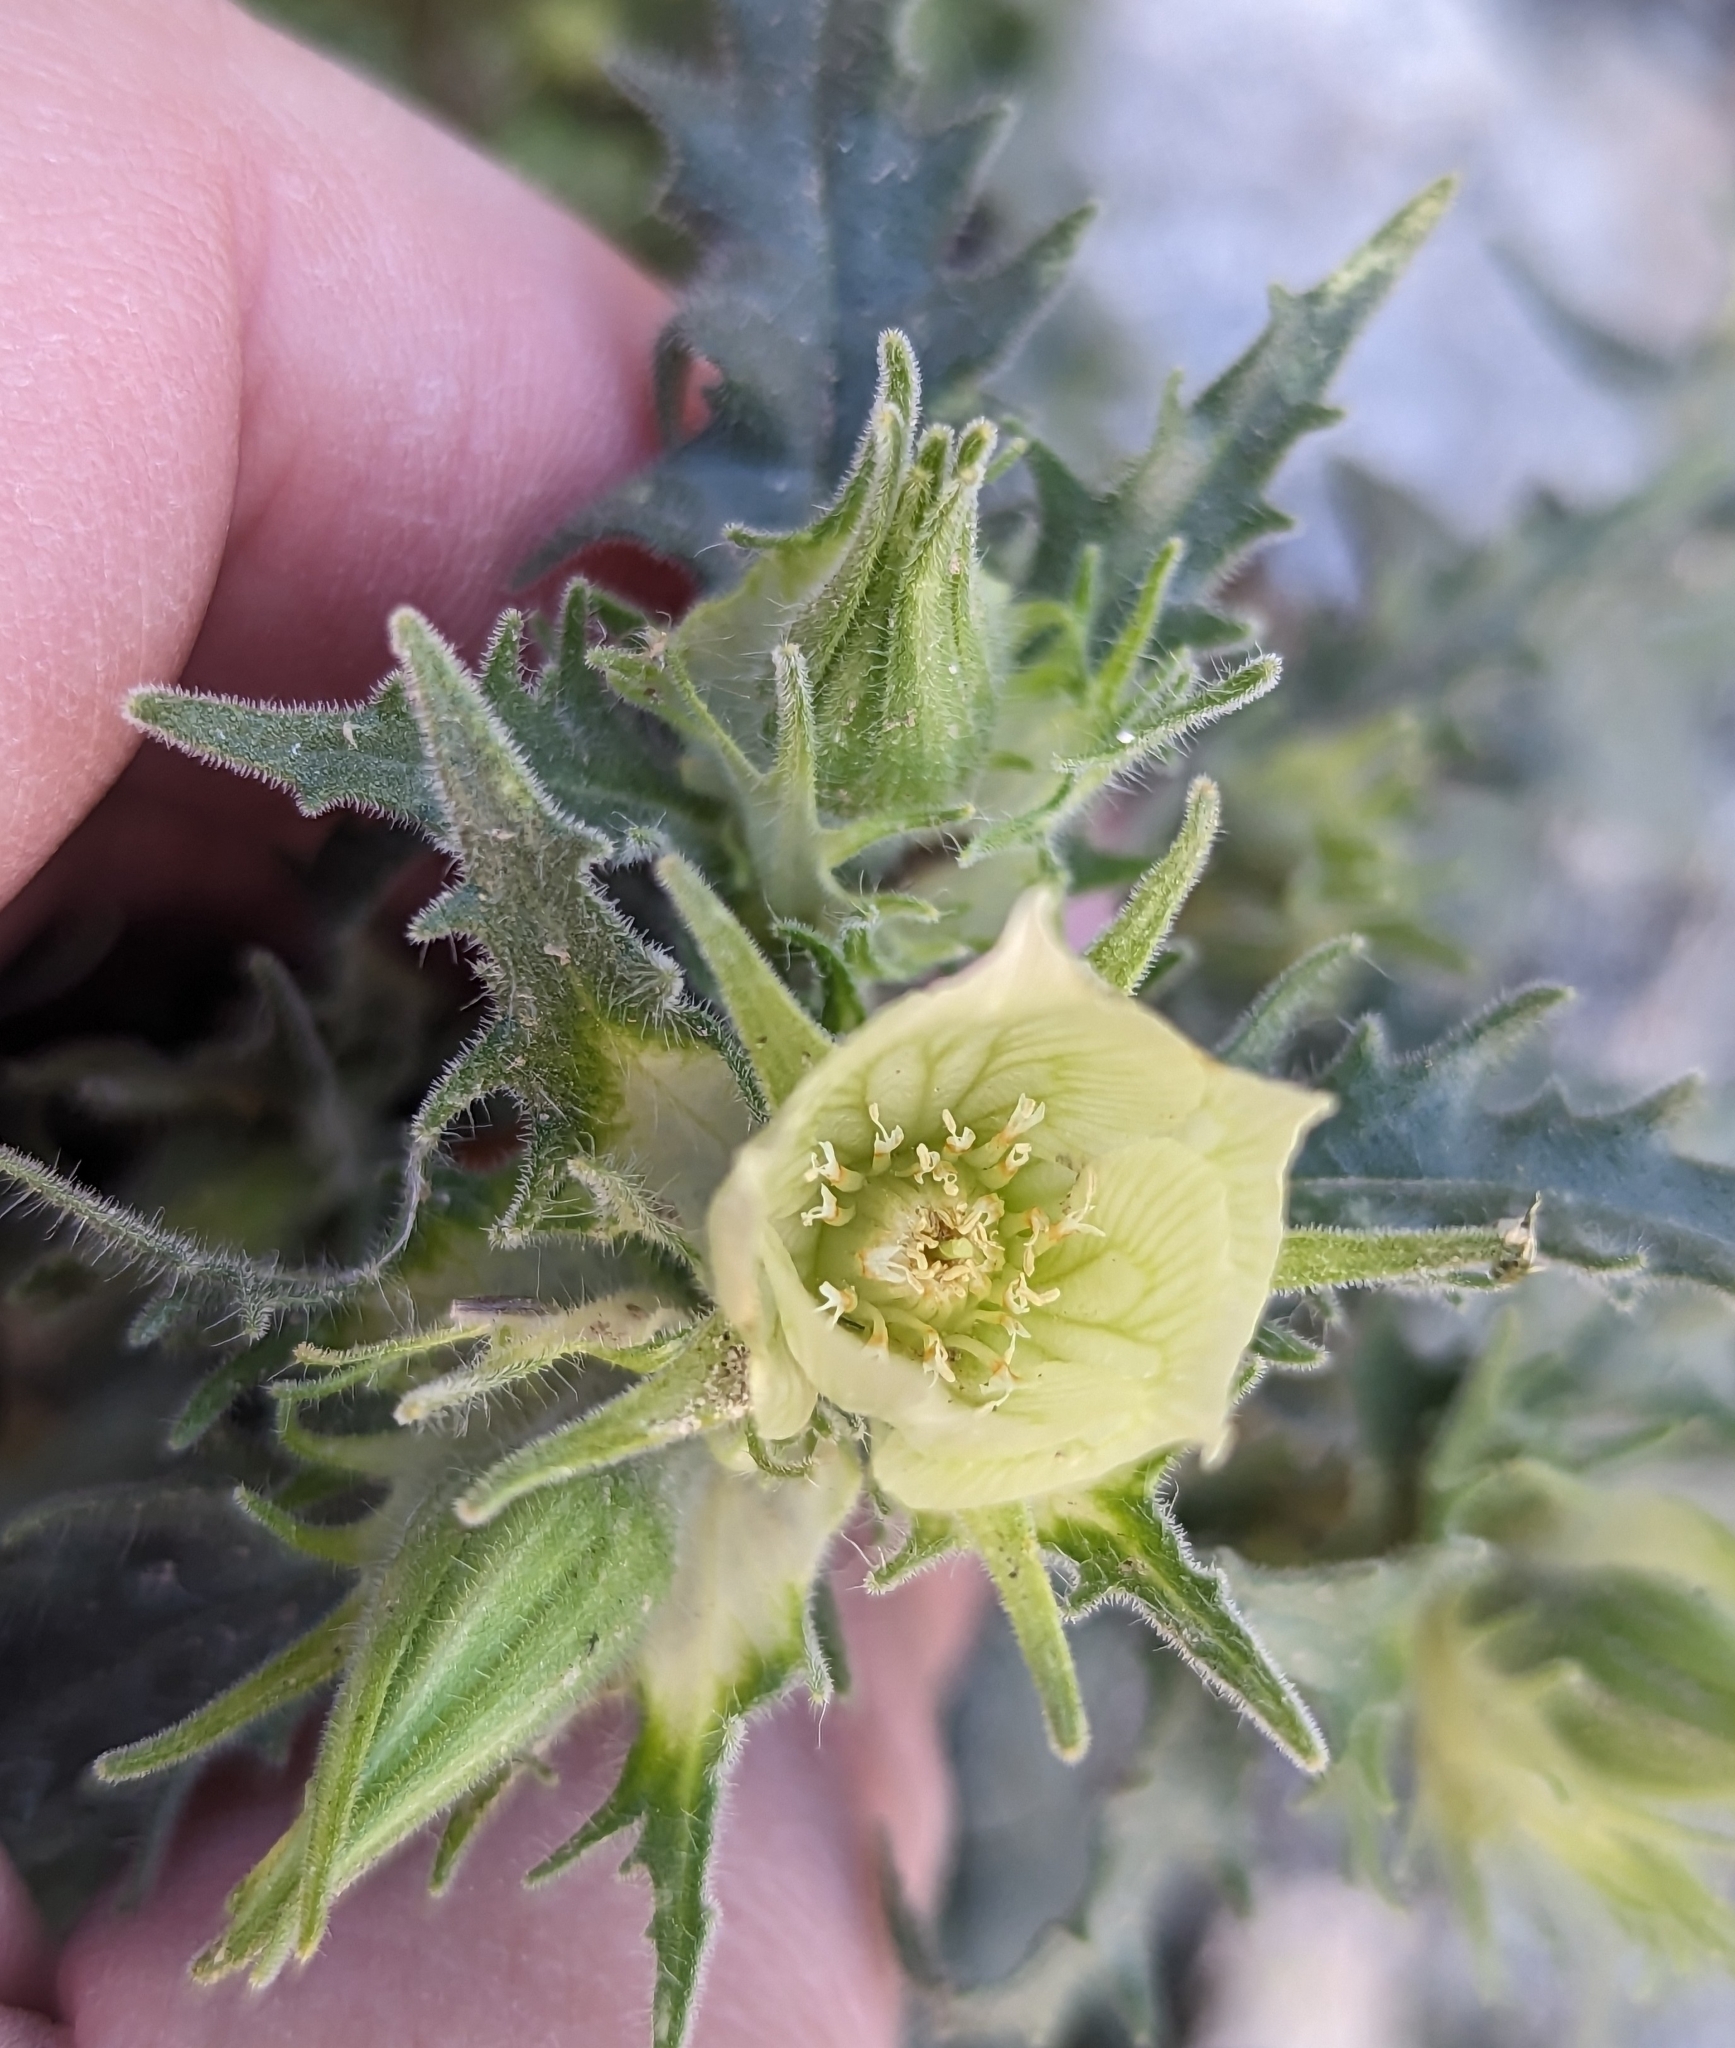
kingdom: Plantae
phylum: Tracheophyta
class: Magnoliopsida
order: Cornales
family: Loasaceae
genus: Mentzelia
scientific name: Mentzelia involucrata
